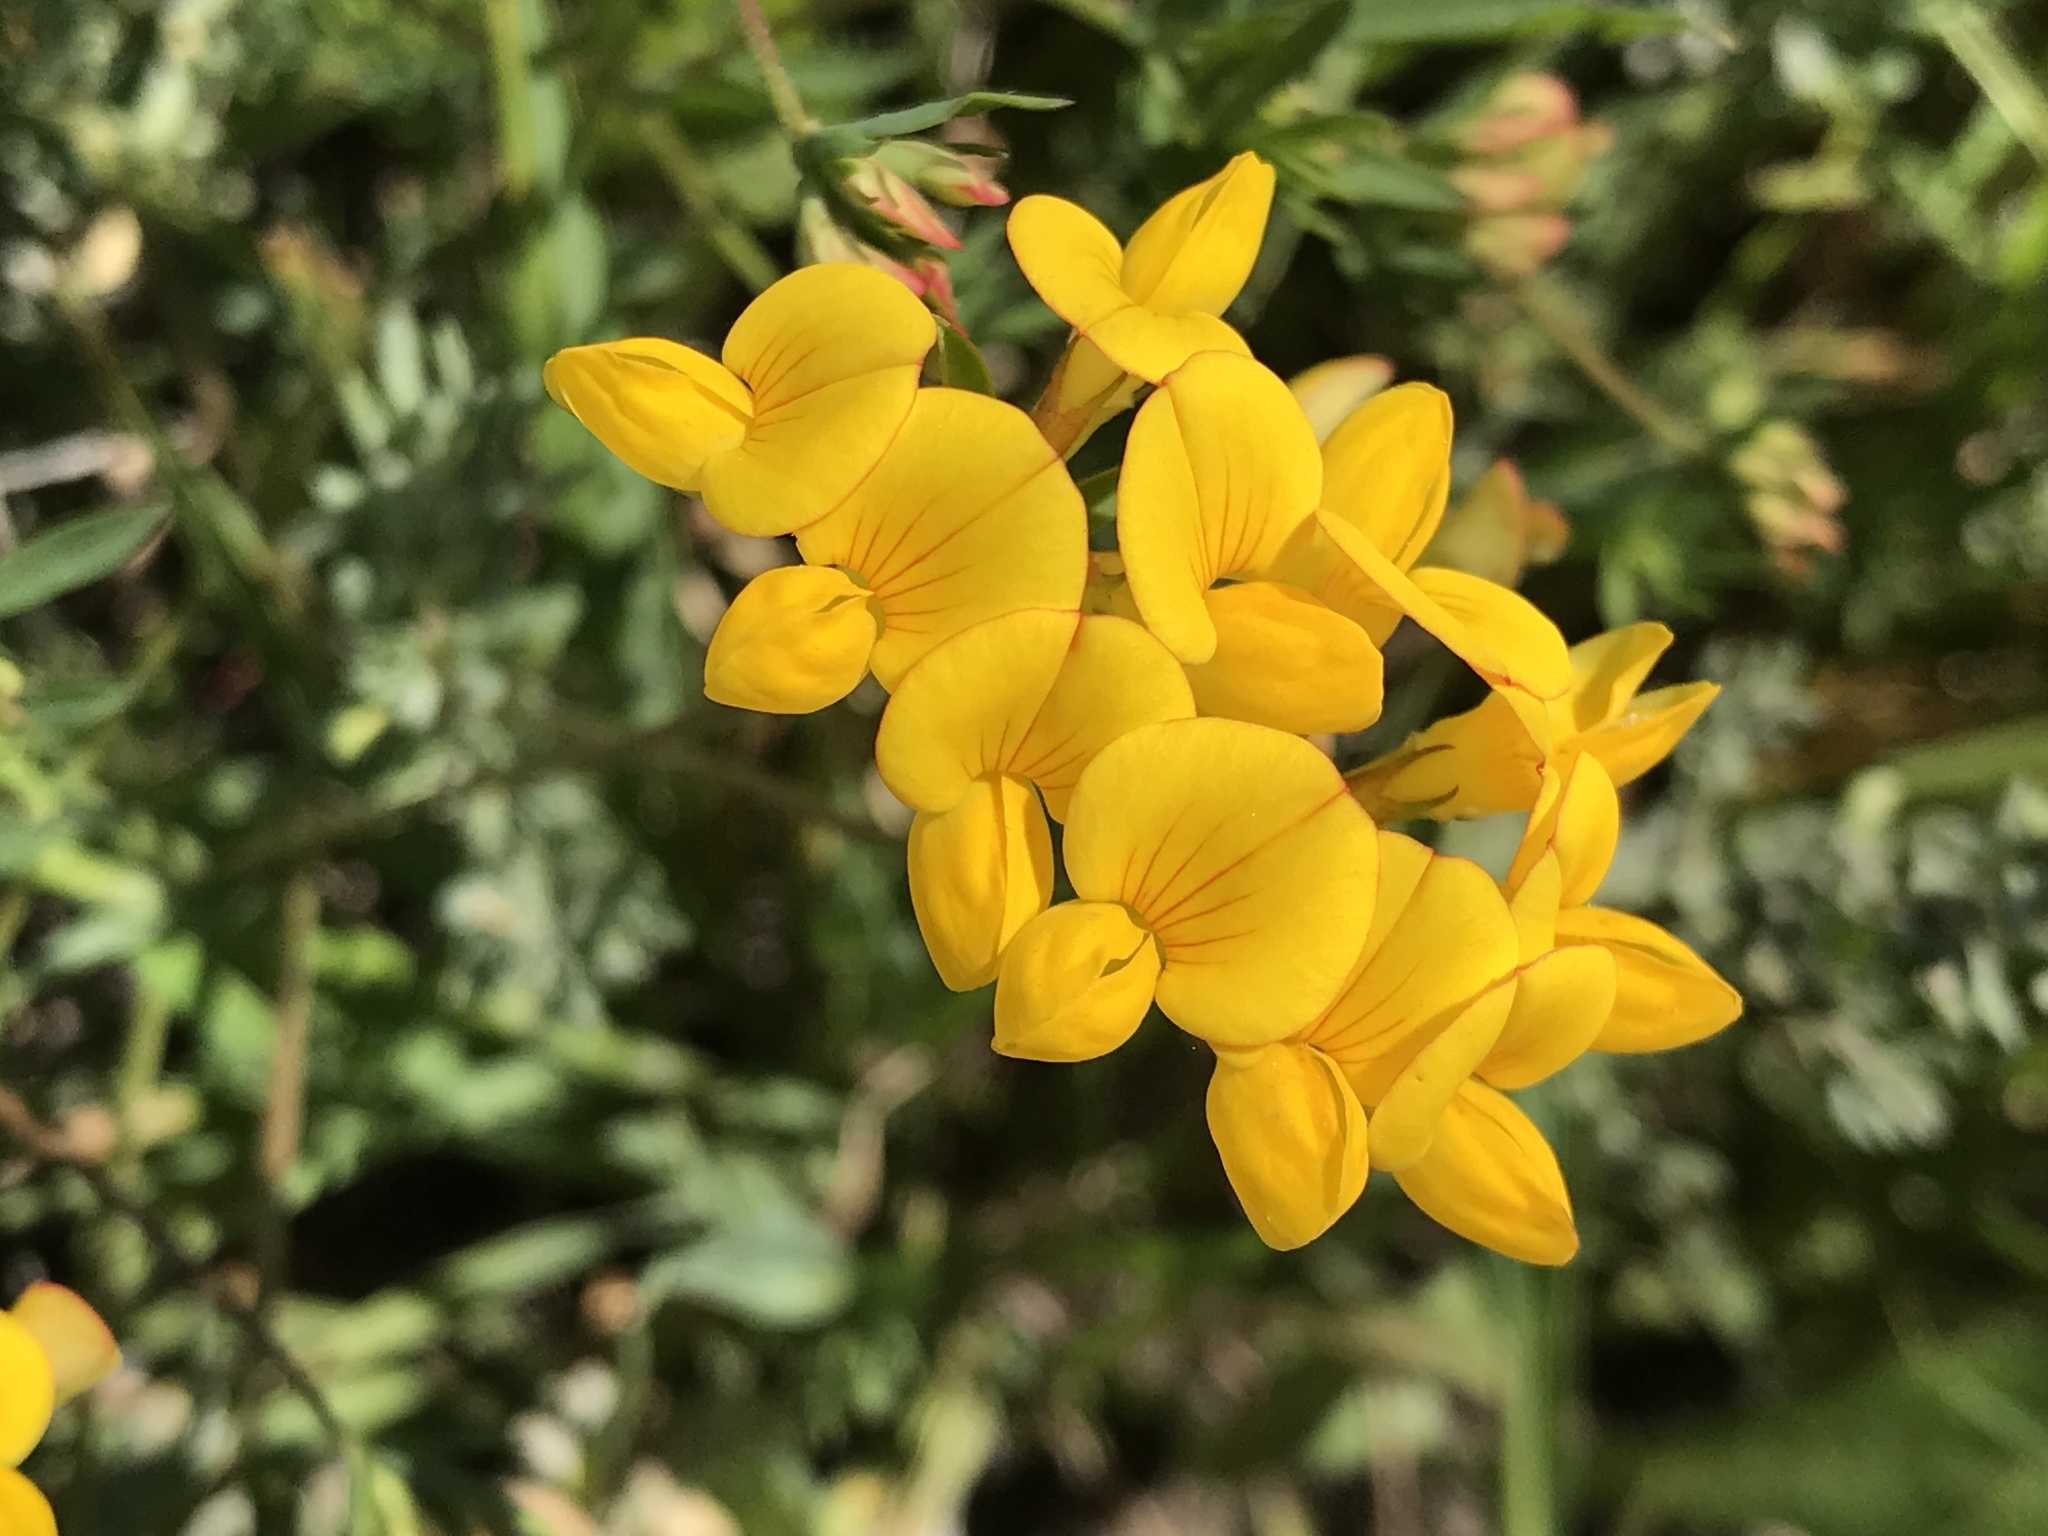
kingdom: Plantae
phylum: Tracheophyta
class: Magnoliopsida
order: Fabales
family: Fabaceae
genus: Lotus
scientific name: Lotus corniculatus
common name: Common bird's-foot-trefoil
